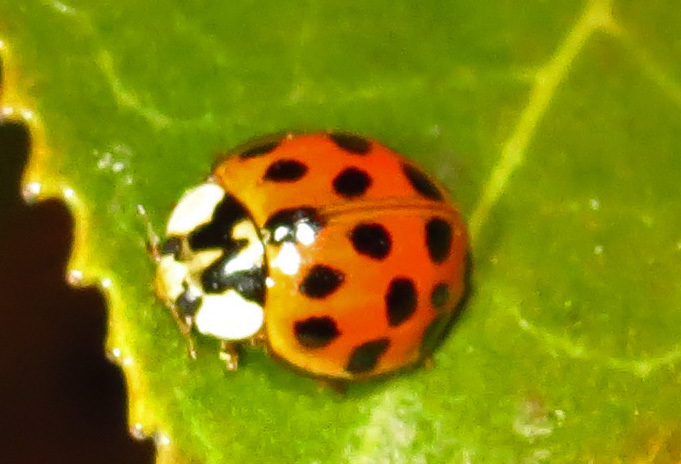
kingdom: Animalia
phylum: Arthropoda
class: Insecta
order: Coleoptera
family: Coccinellidae
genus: Harmonia
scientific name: Harmonia axyridis
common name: Harlequin ladybird
